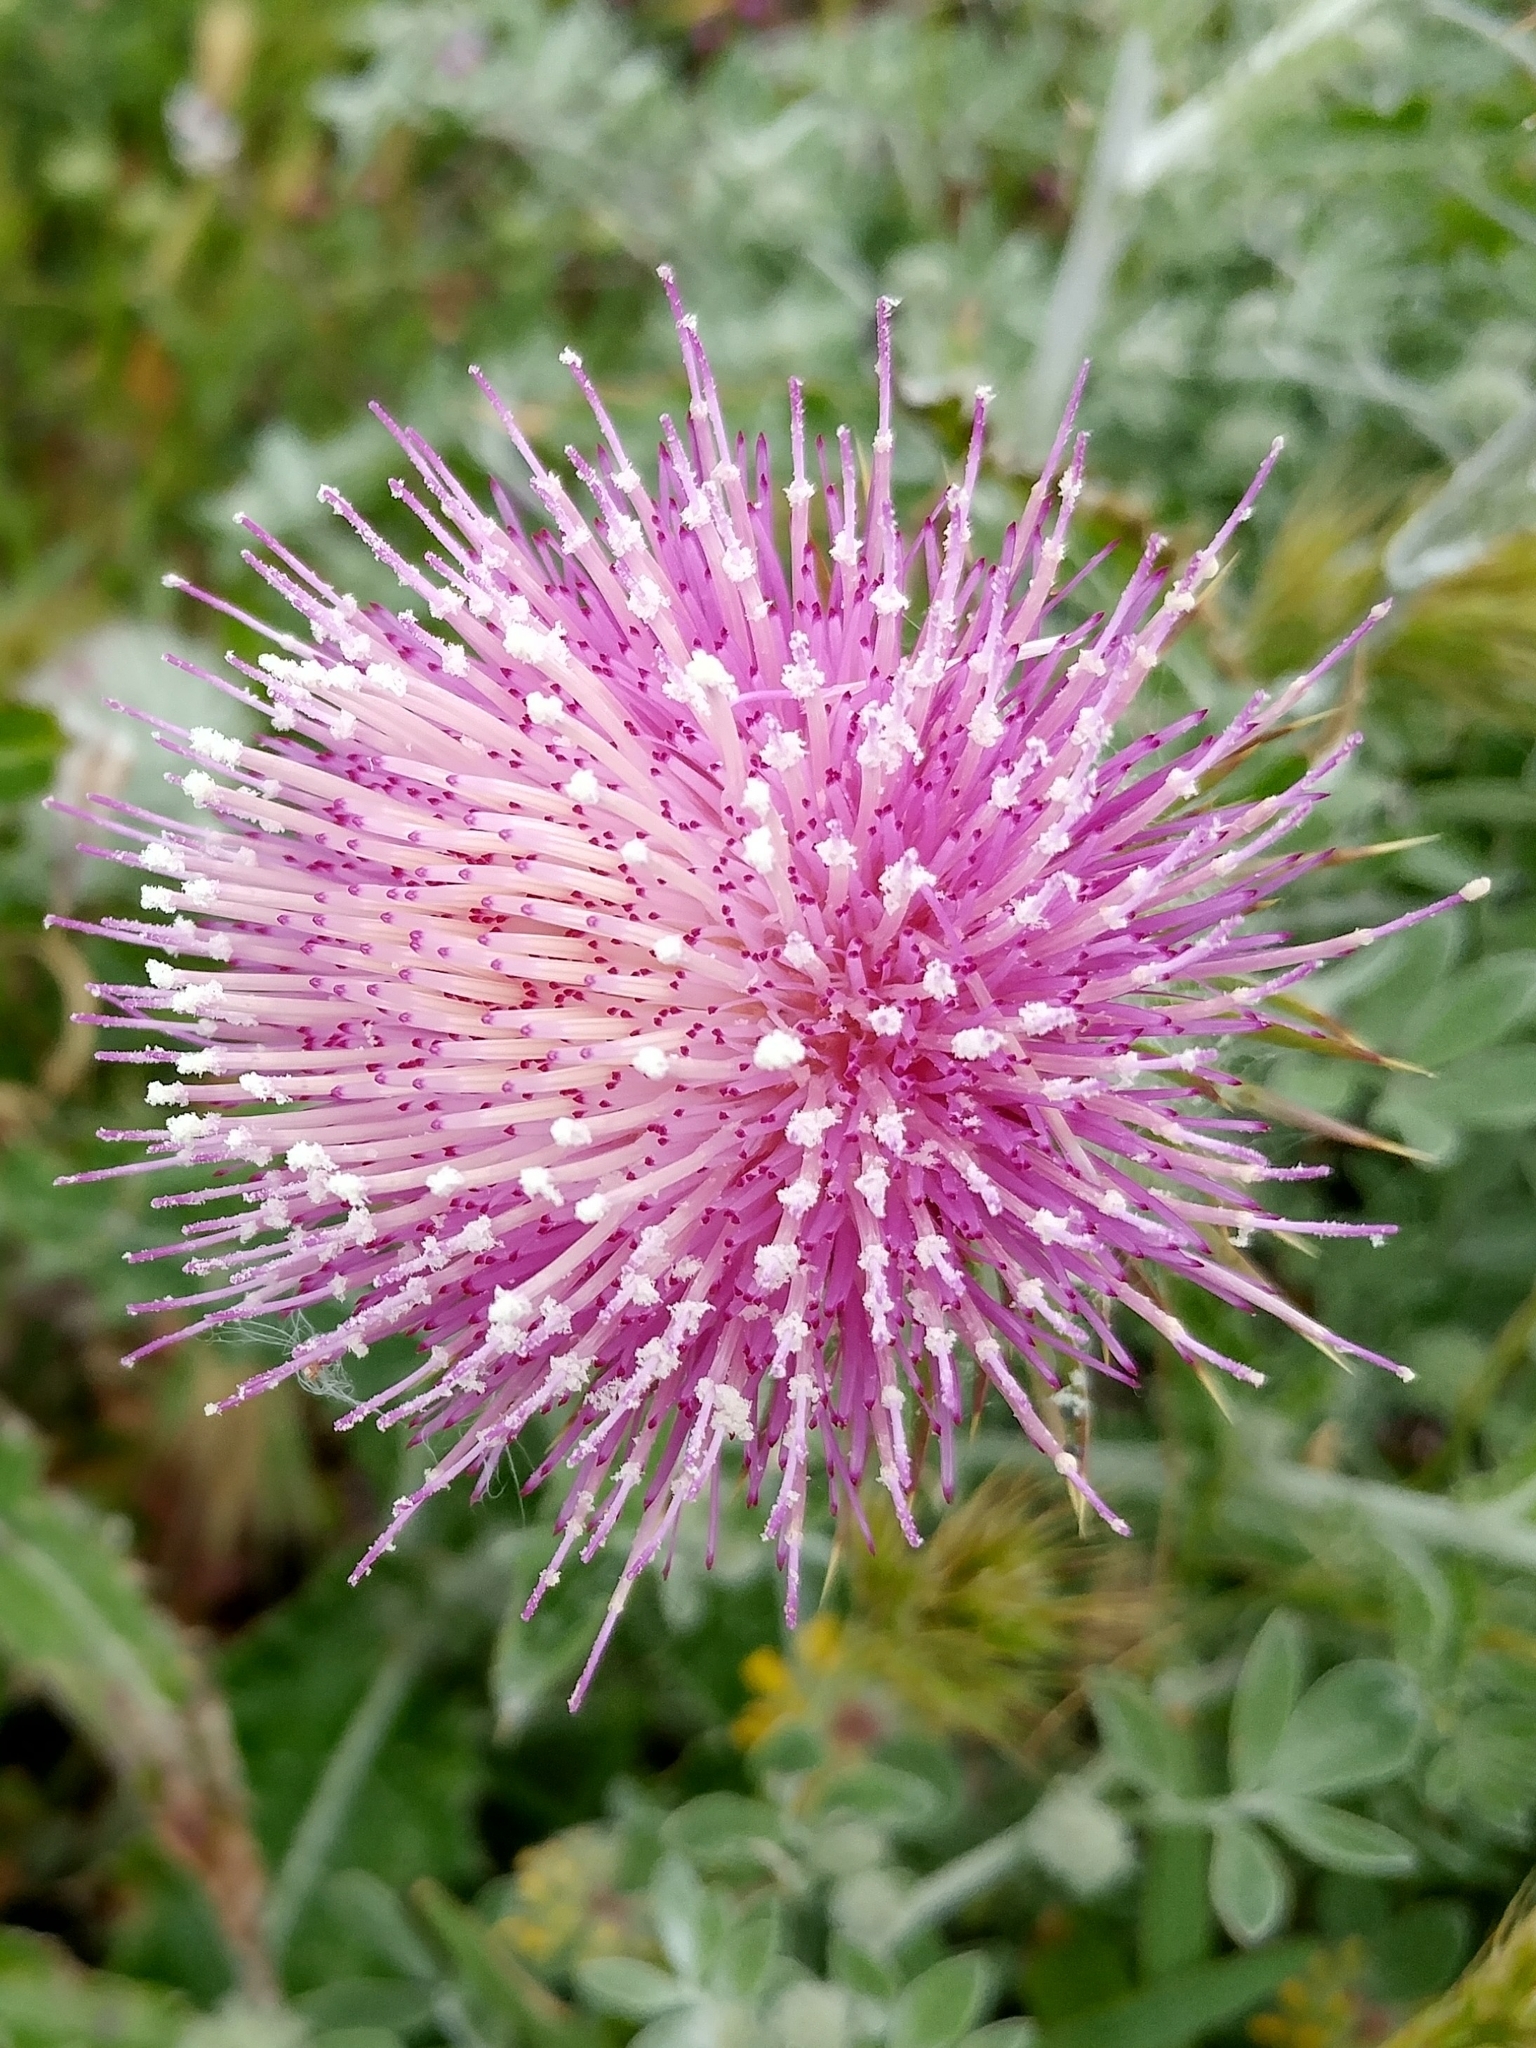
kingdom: Plantae
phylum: Tracheophyta
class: Magnoliopsida
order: Asterales
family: Asteraceae
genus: Cirsium
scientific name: Cirsium occidentale
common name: Western thistle
